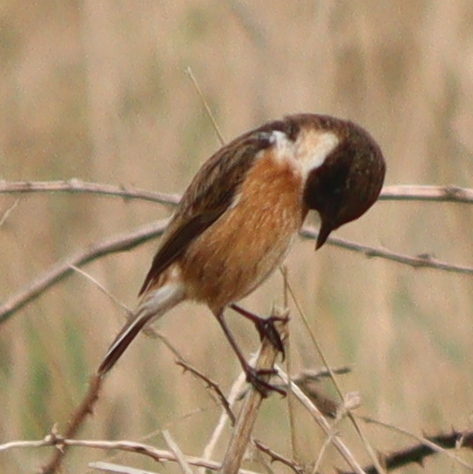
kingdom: Animalia
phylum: Chordata
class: Aves
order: Passeriformes
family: Muscicapidae
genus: Saxicola
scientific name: Saxicola rubicola
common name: European stonechat
